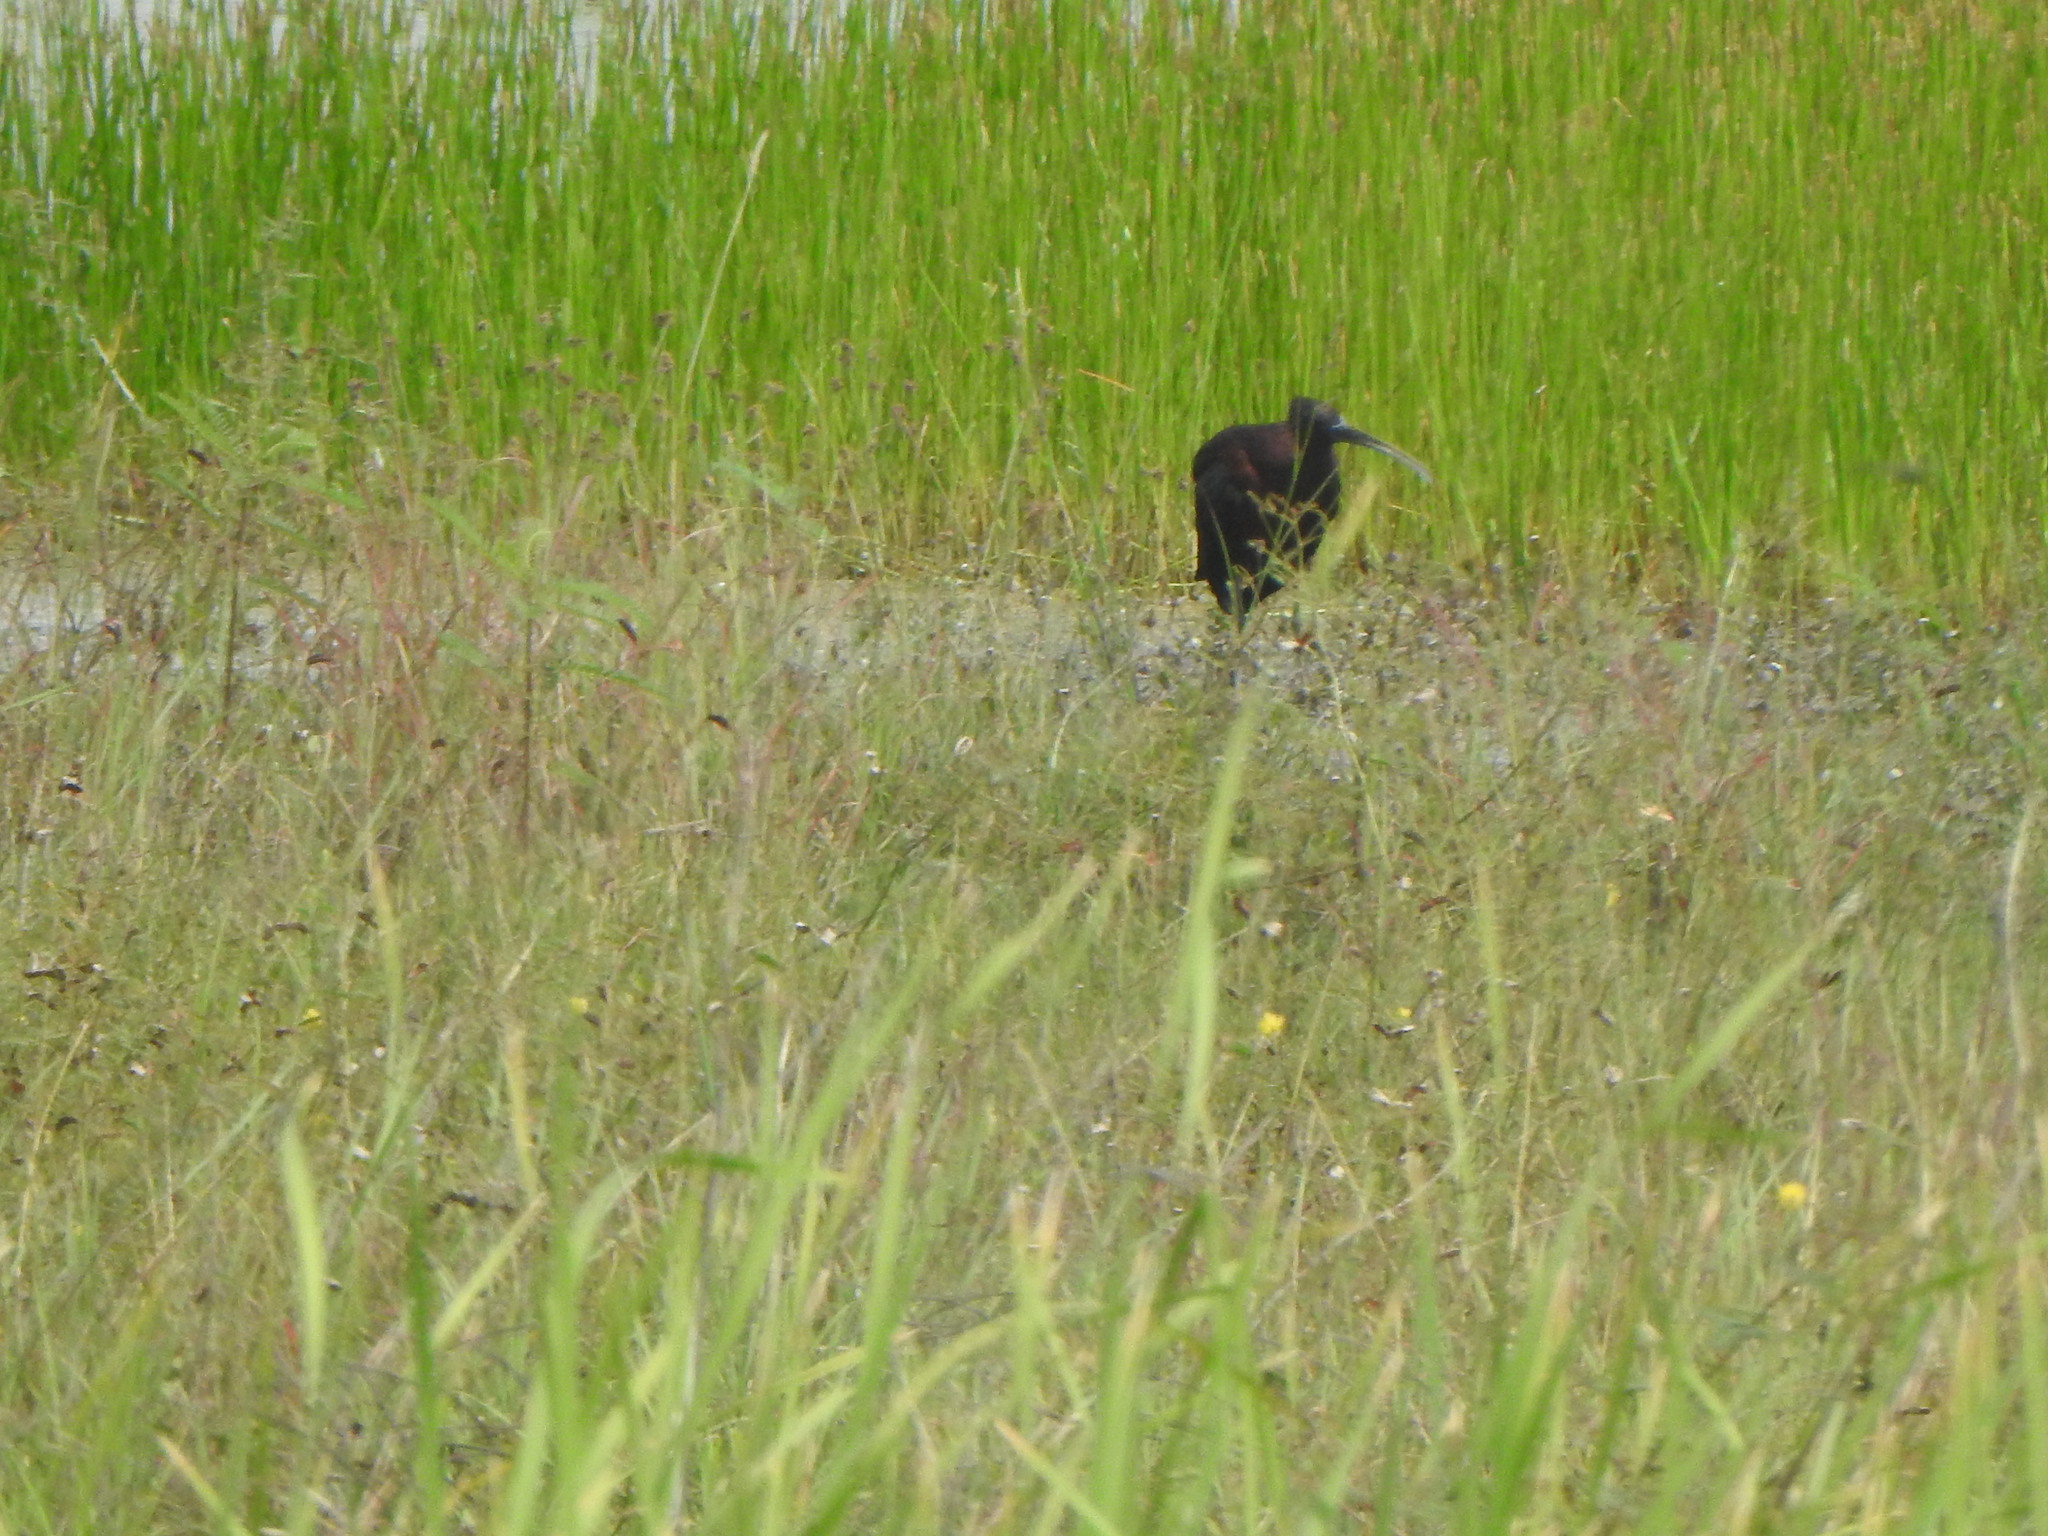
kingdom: Animalia
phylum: Chordata
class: Aves
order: Pelecaniformes
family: Threskiornithidae
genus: Phimosus
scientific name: Phimosus infuscatus
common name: Bare-faced ibis
